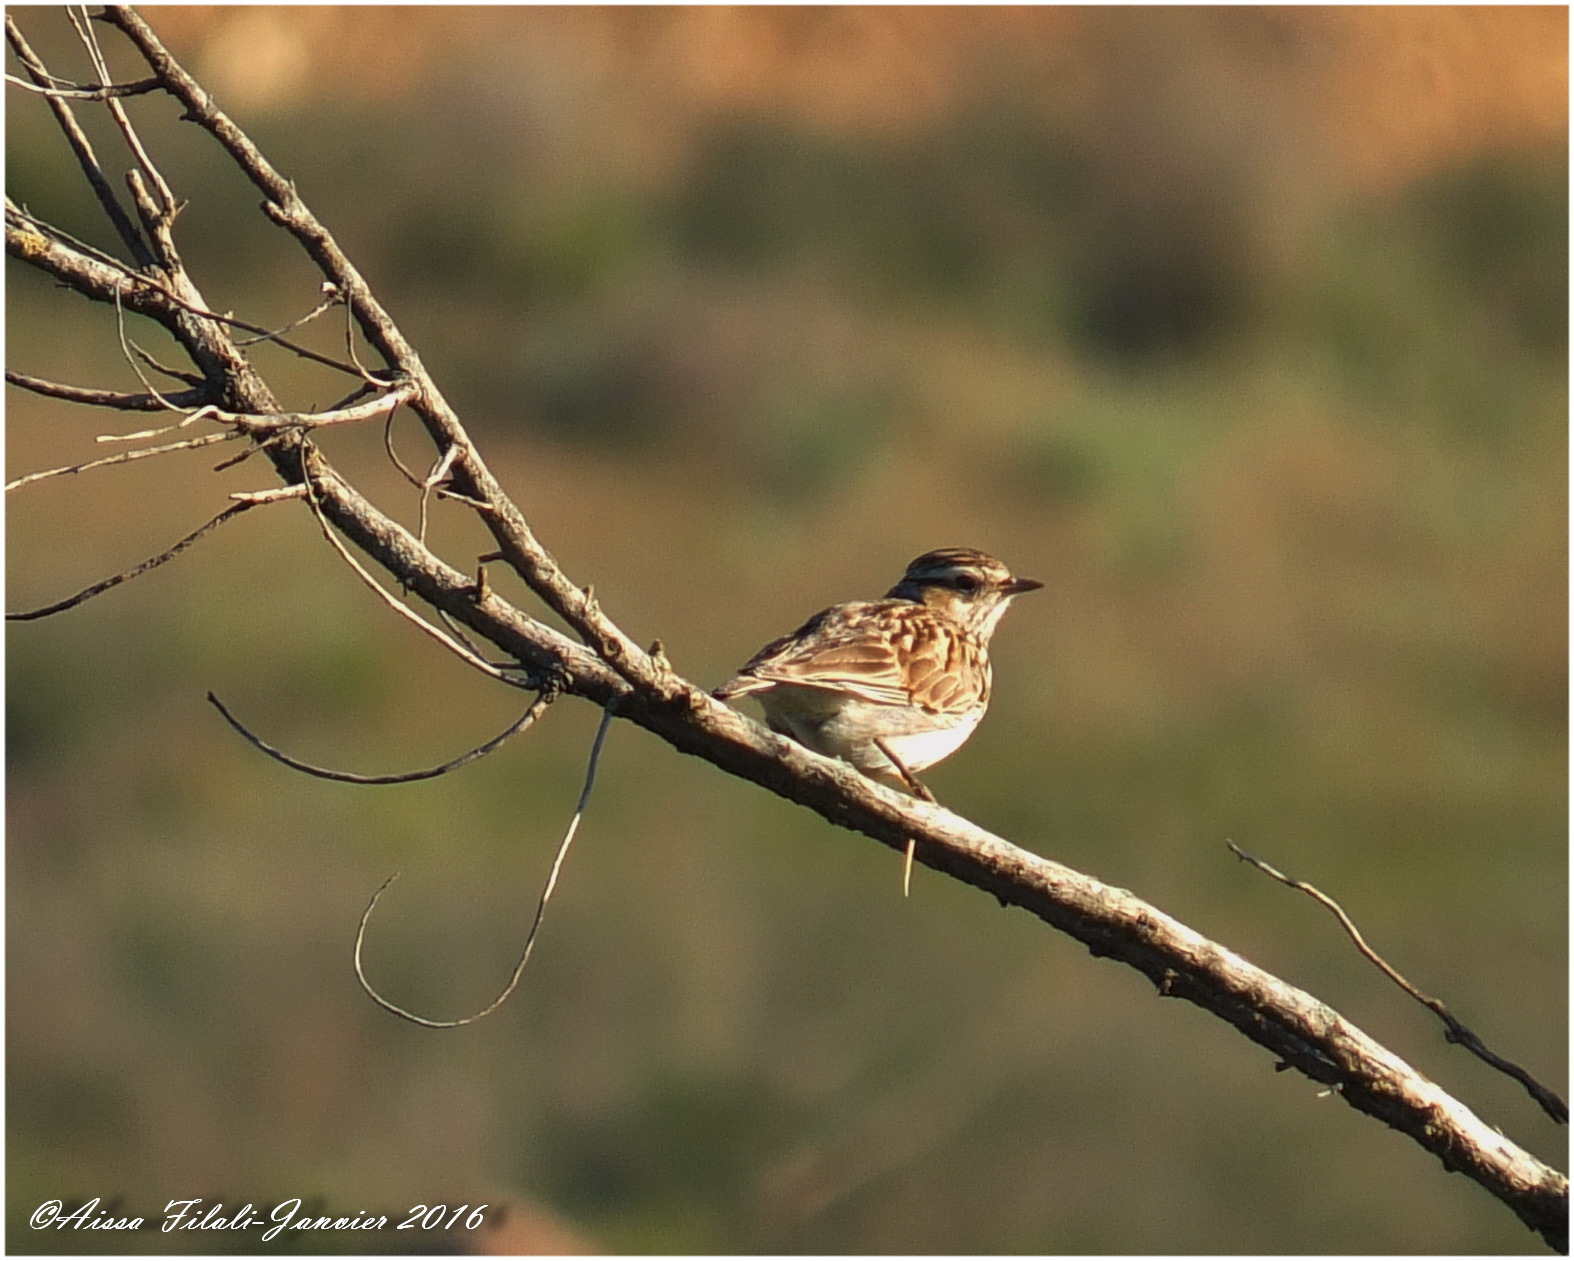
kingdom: Animalia
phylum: Chordata
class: Aves
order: Passeriformes
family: Alaudidae
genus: Lullula
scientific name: Lullula arborea
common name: Woodlark
